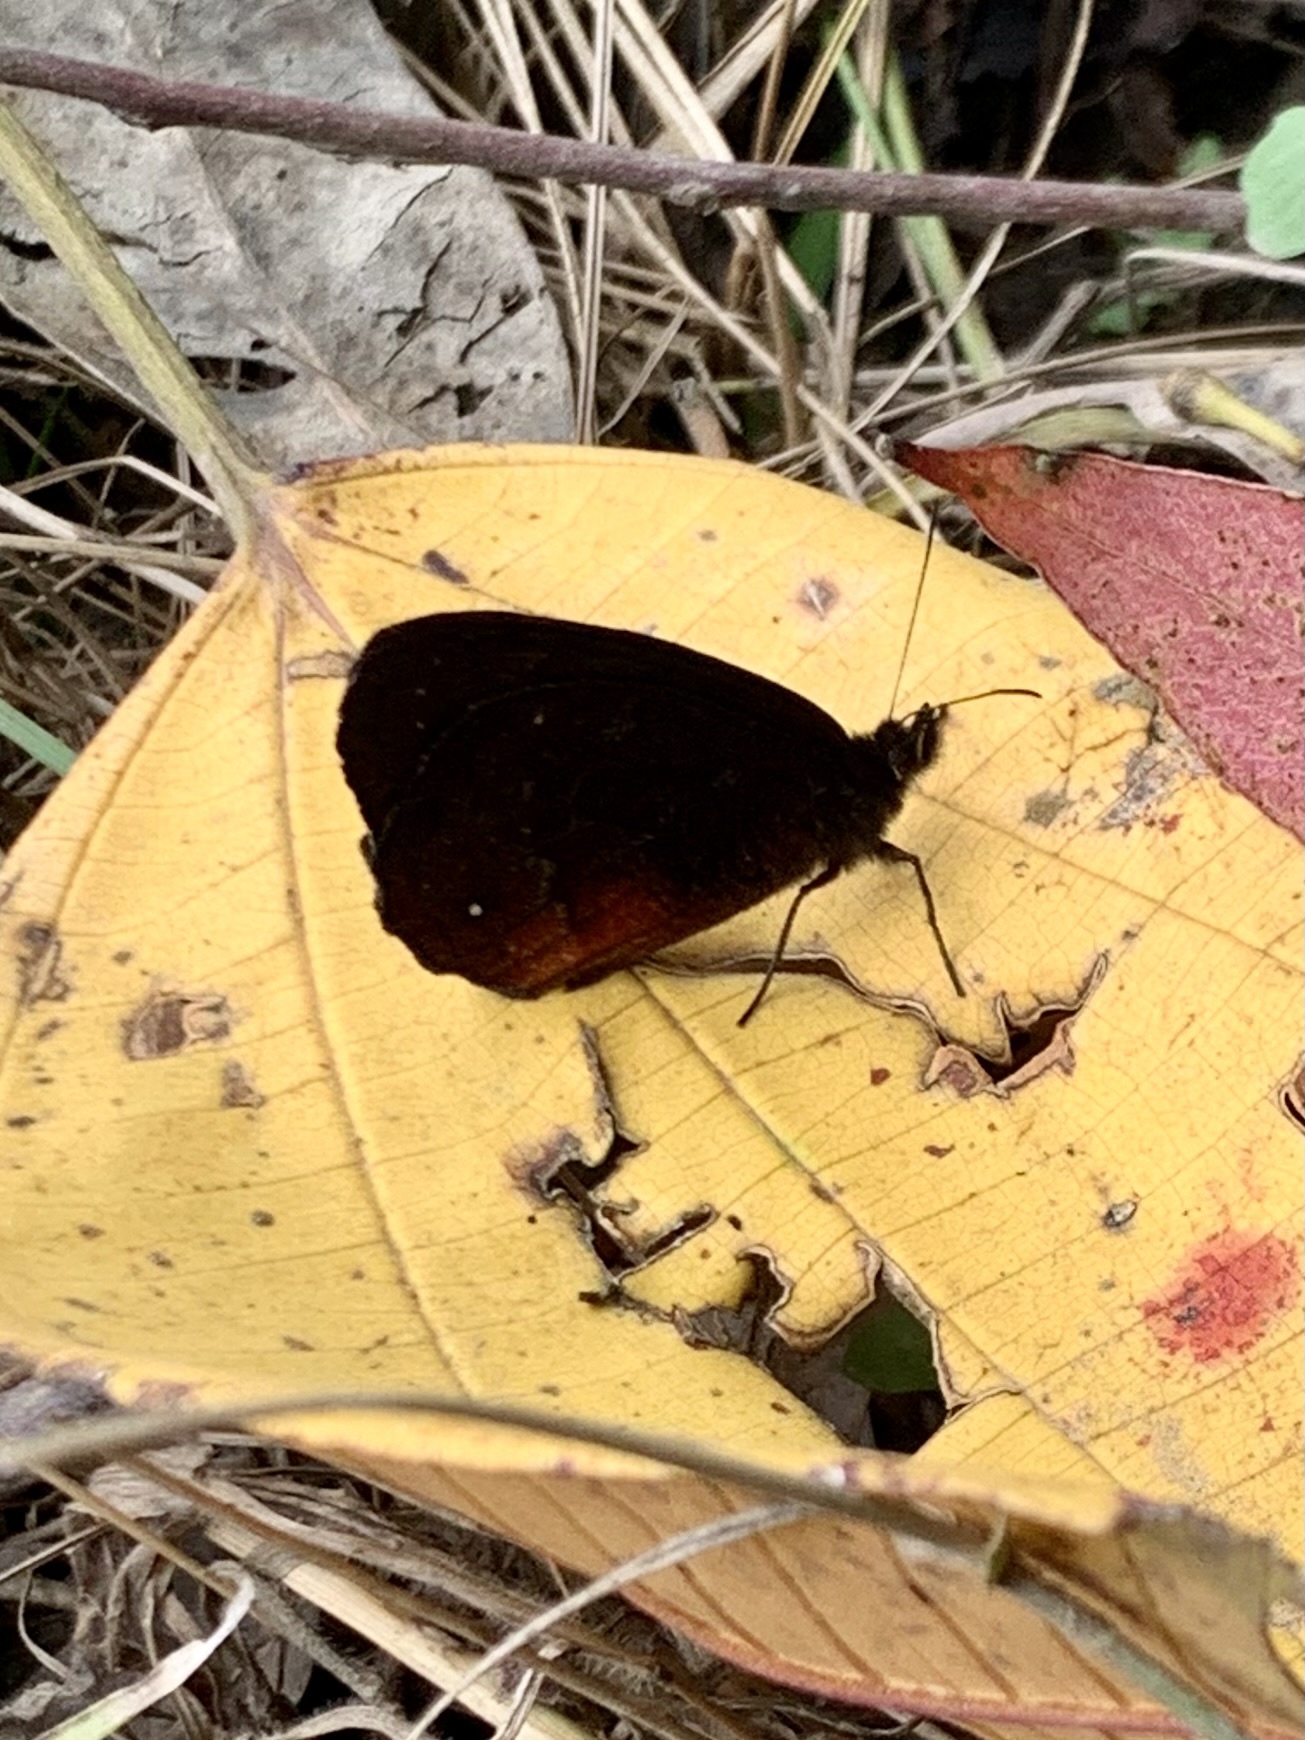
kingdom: Animalia
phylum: Arthropoda
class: Insecta
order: Lepidoptera
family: Nymphalidae
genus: Pedaliodes
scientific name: Pedaliodes
